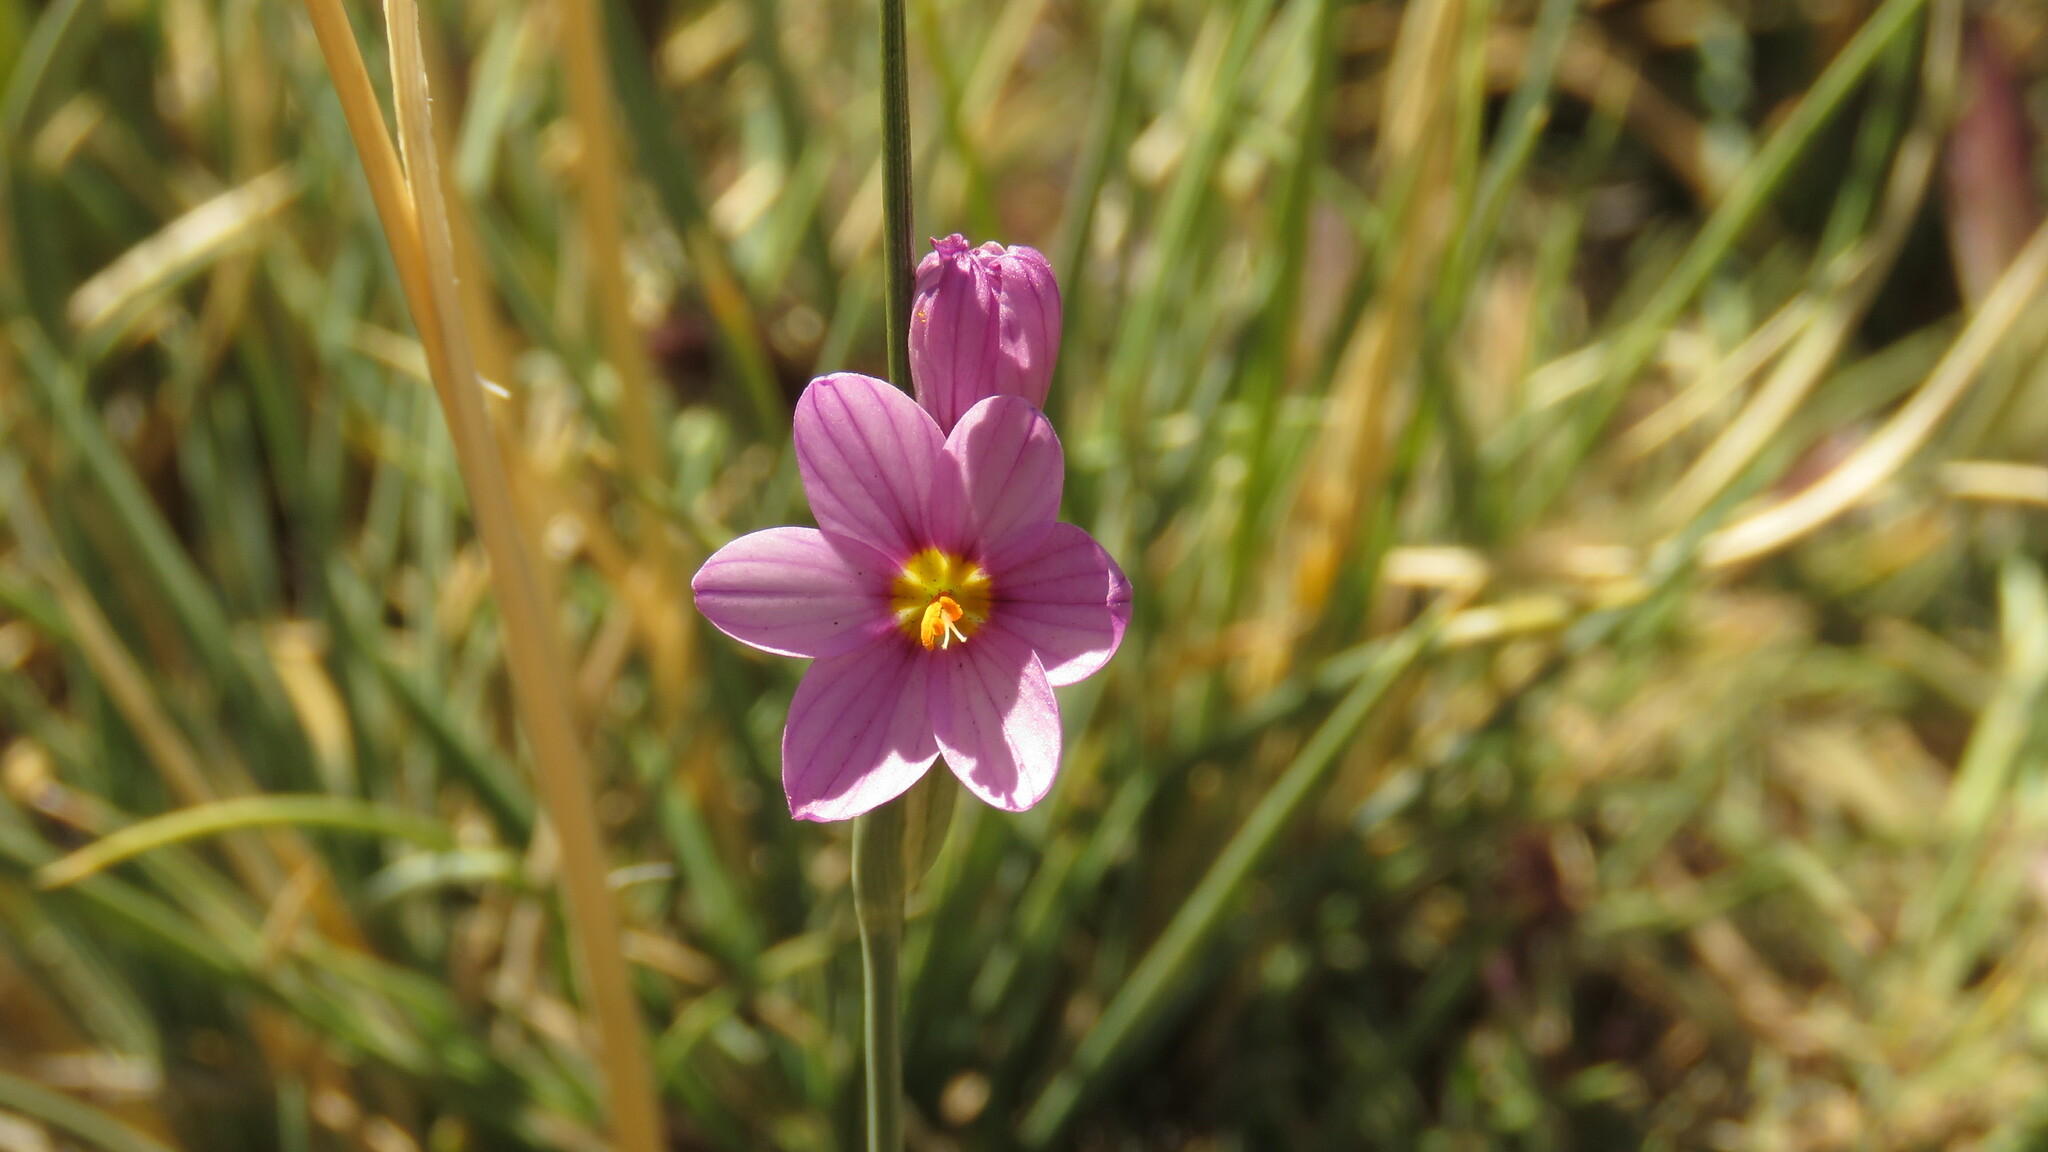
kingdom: Plantae
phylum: Tracheophyta
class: Liliopsida
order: Asparagales
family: Iridaceae
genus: Olsynium
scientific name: Olsynium junceum
